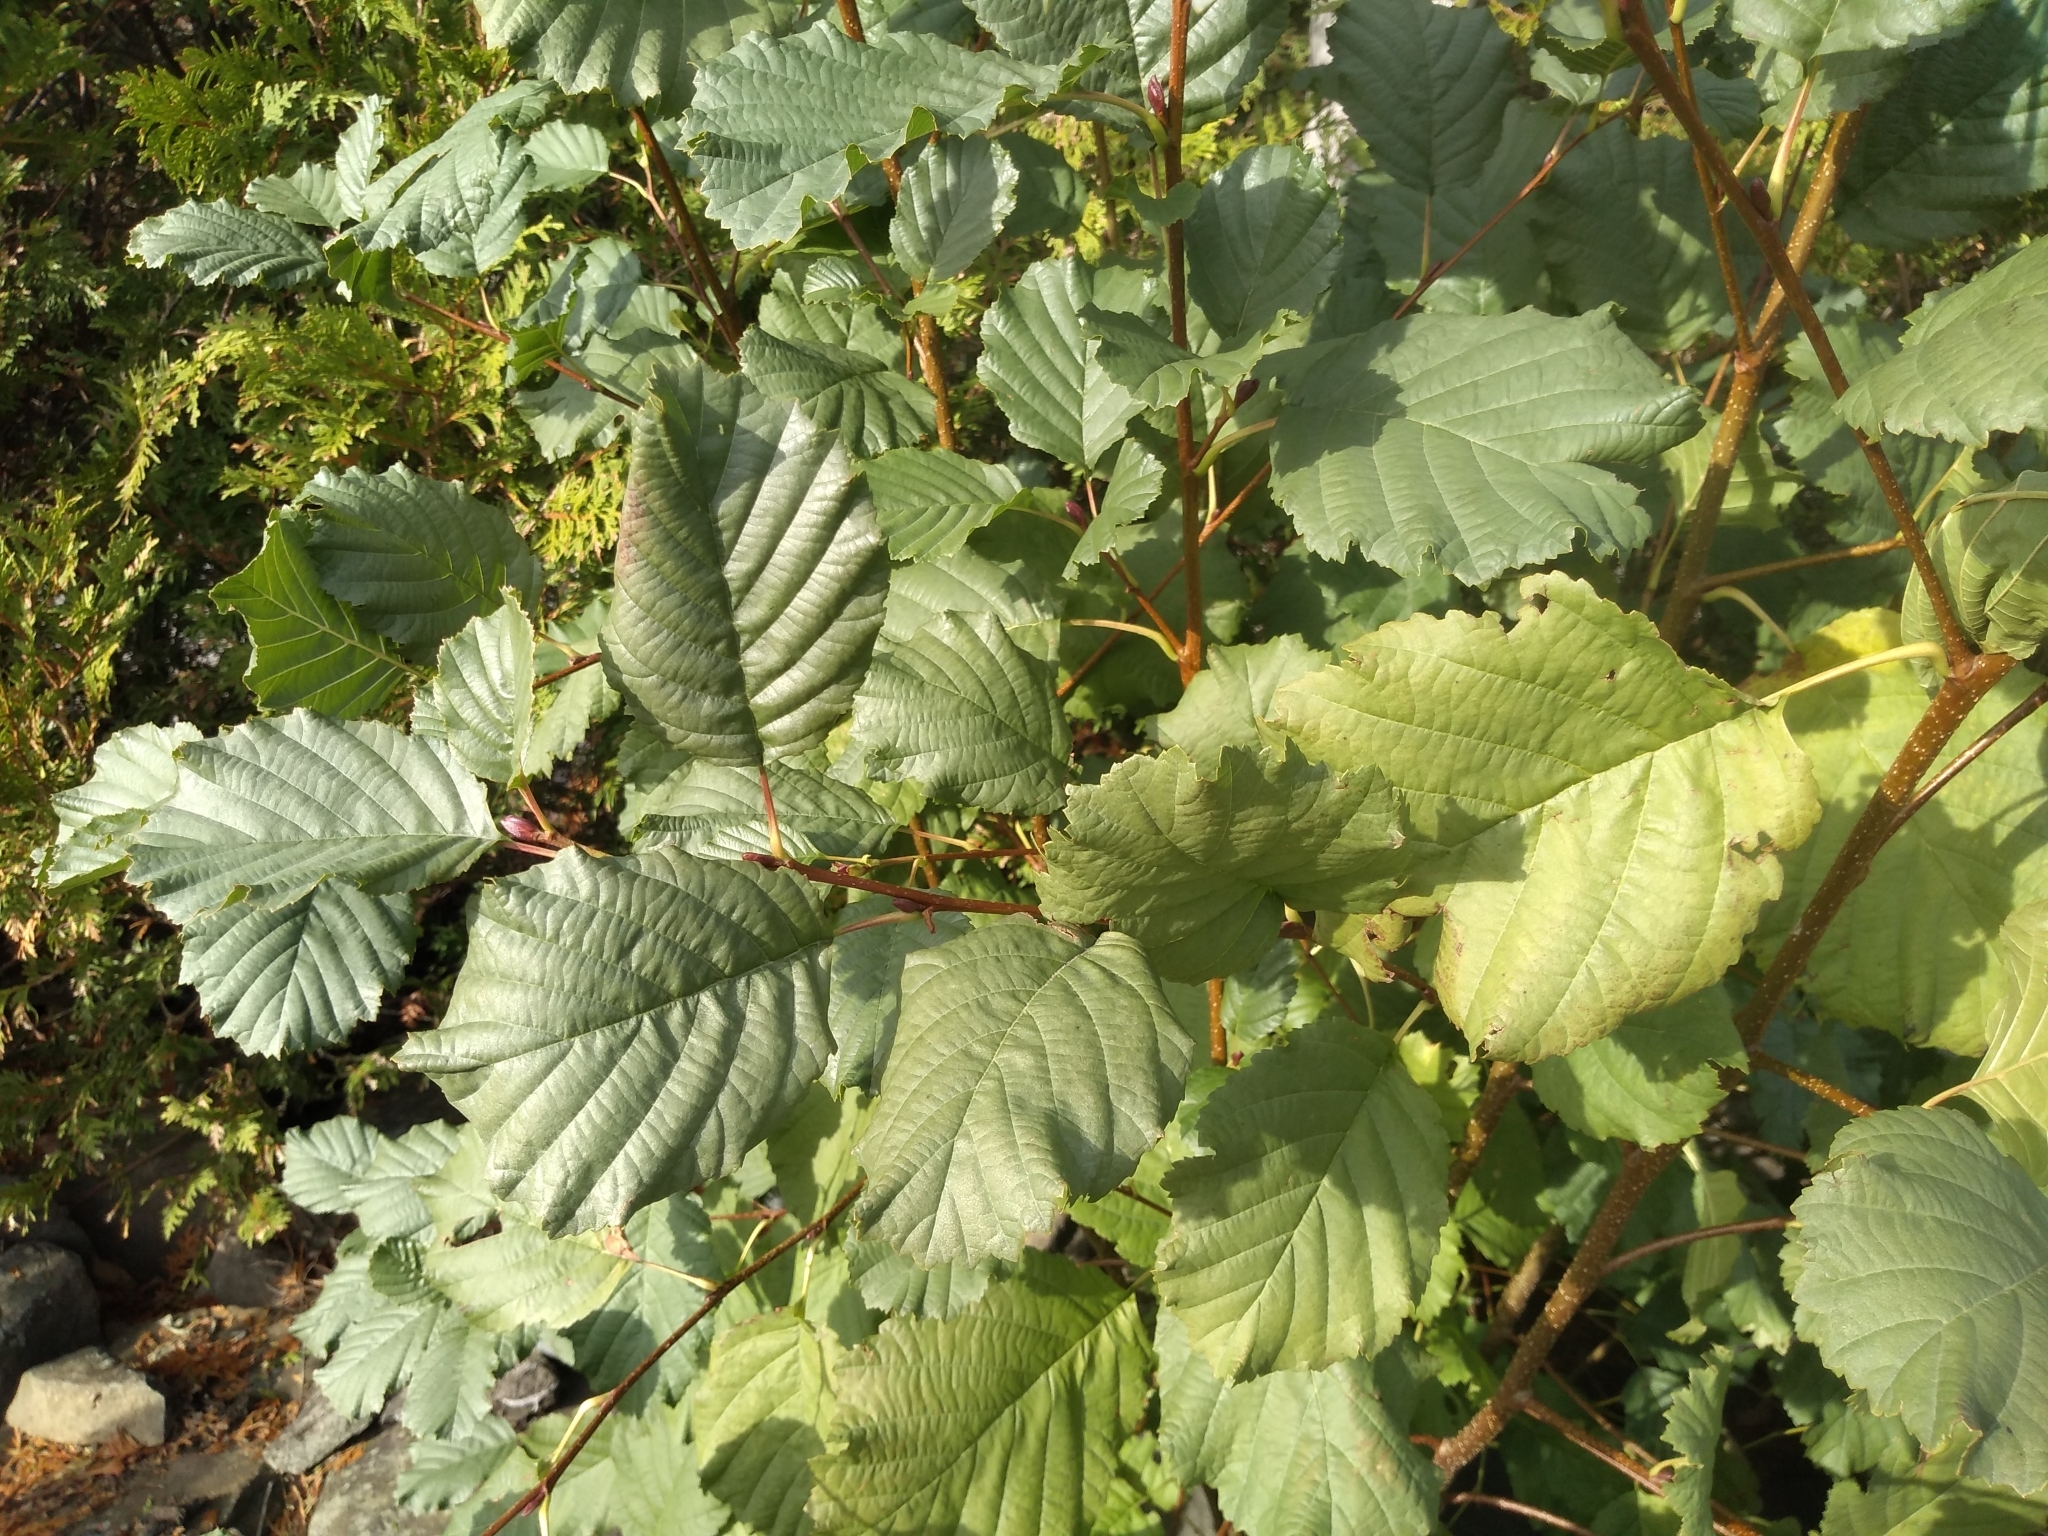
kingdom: Plantae
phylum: Tracheophyta
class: Magnoliopsida
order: Fagales
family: Betulaceae
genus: Alnus
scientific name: Alnus glutinosa
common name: Black alder
